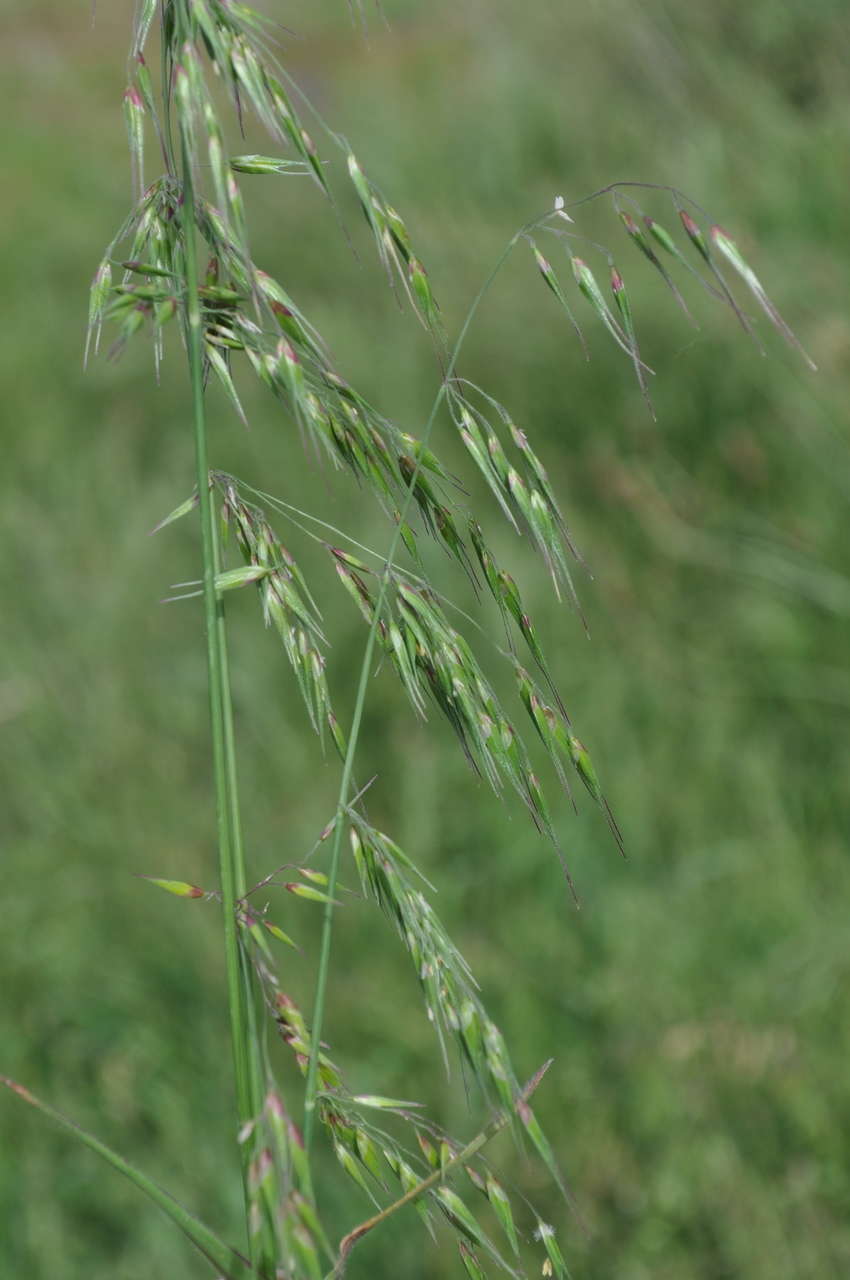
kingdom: Plantae
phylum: Tracheophyta
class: Liliopsida
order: Poales
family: Poaceae
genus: Ehrharta
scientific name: Ehrharta longiflora
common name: Longflowered veldtgrass
